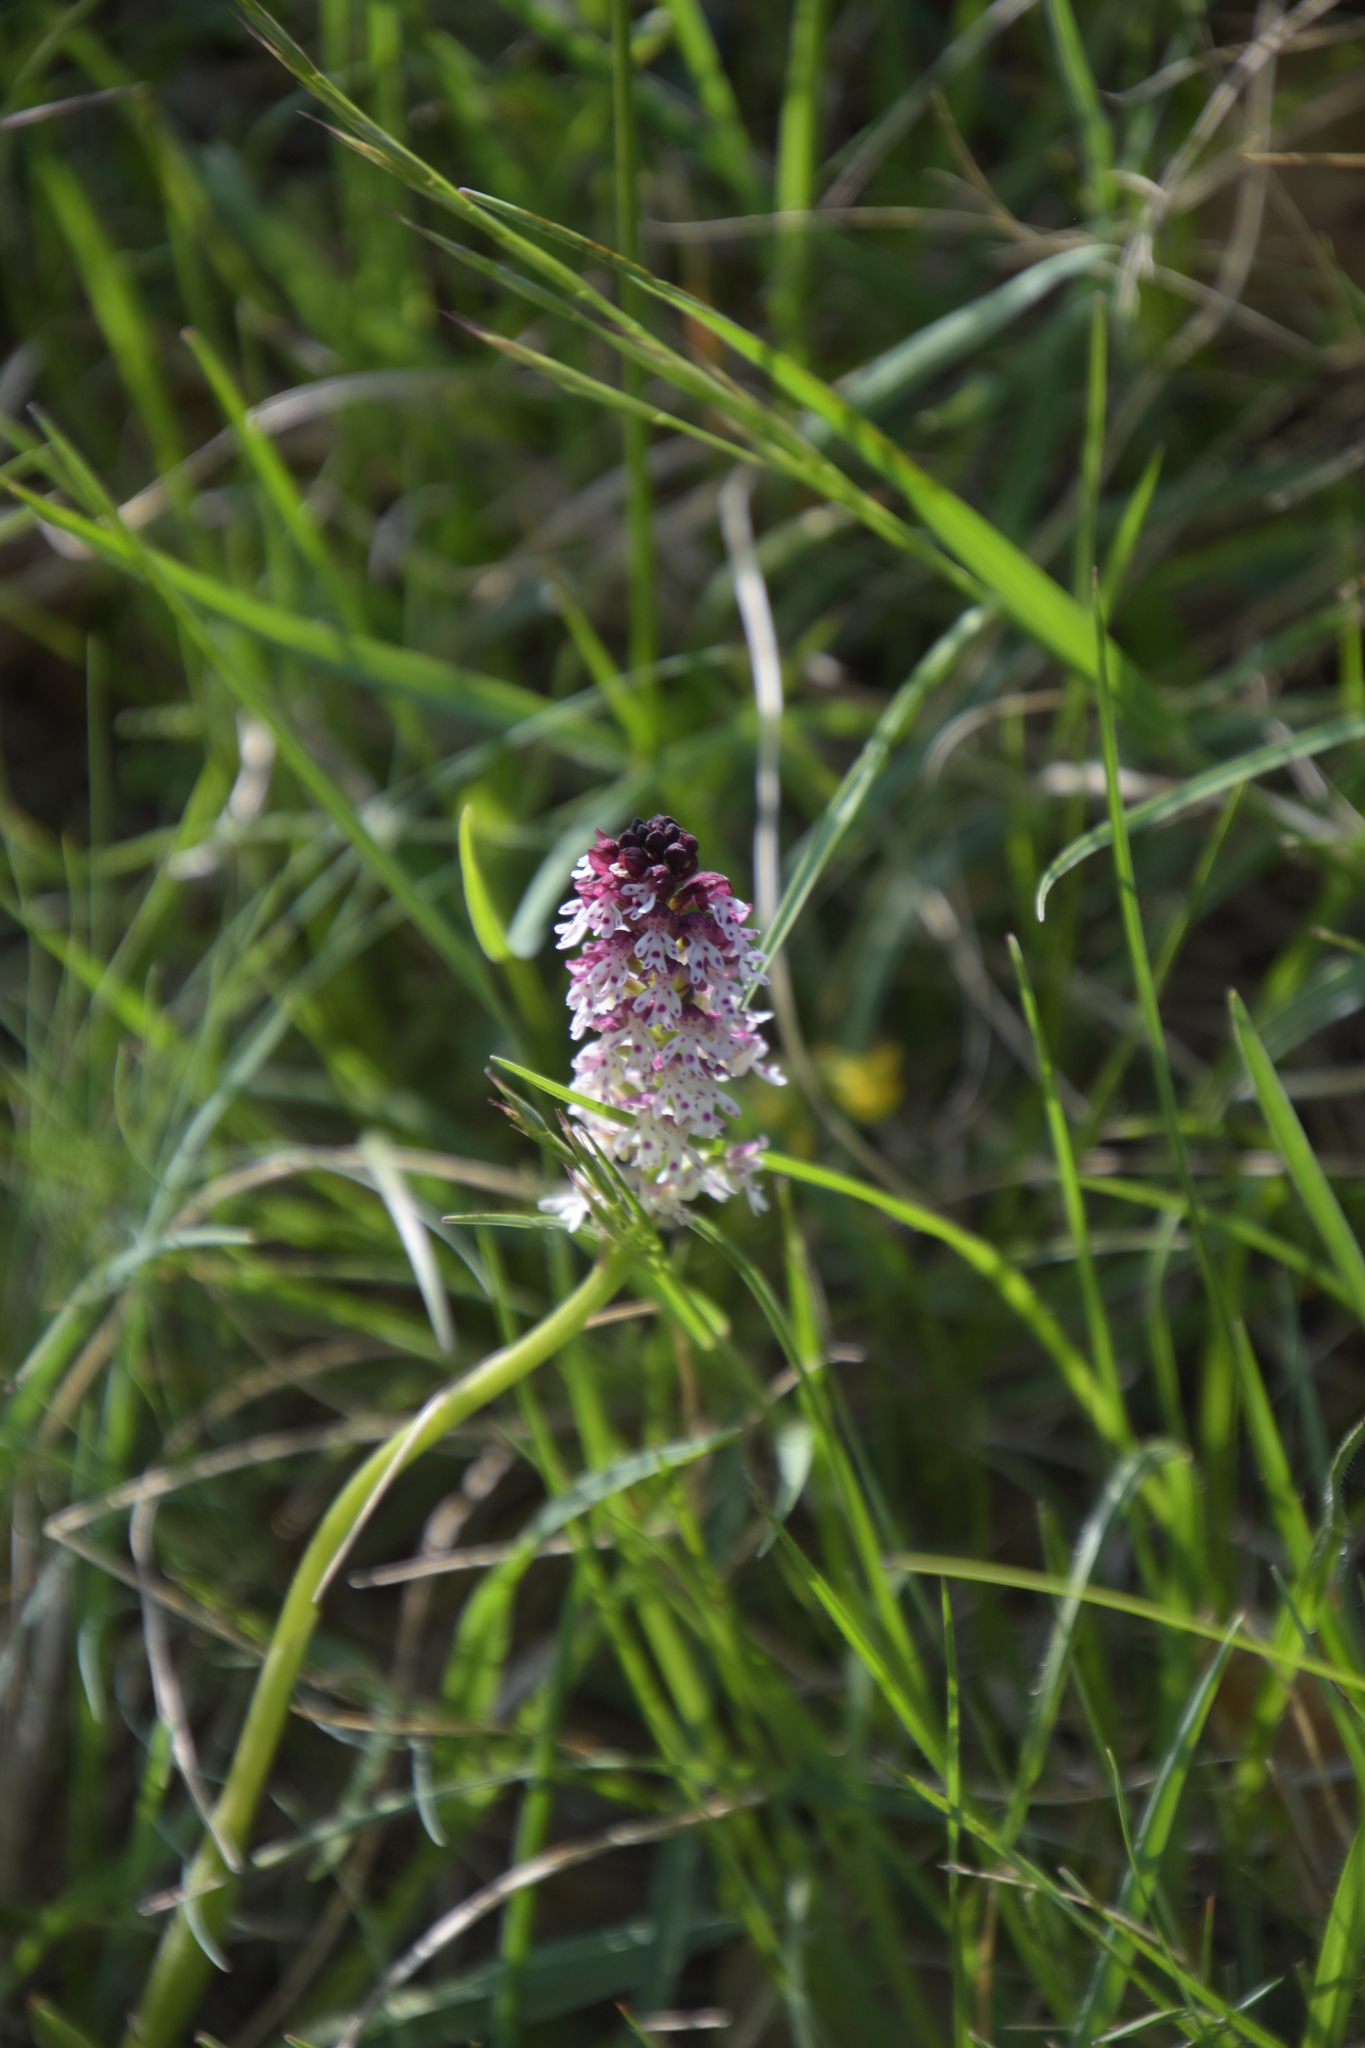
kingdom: Plantae
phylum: Tracheophyta
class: Liliopsida
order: Asparagales
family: Orchidaceae
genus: Neotinea
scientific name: Neotinea ustulata
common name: Burnt orchid
